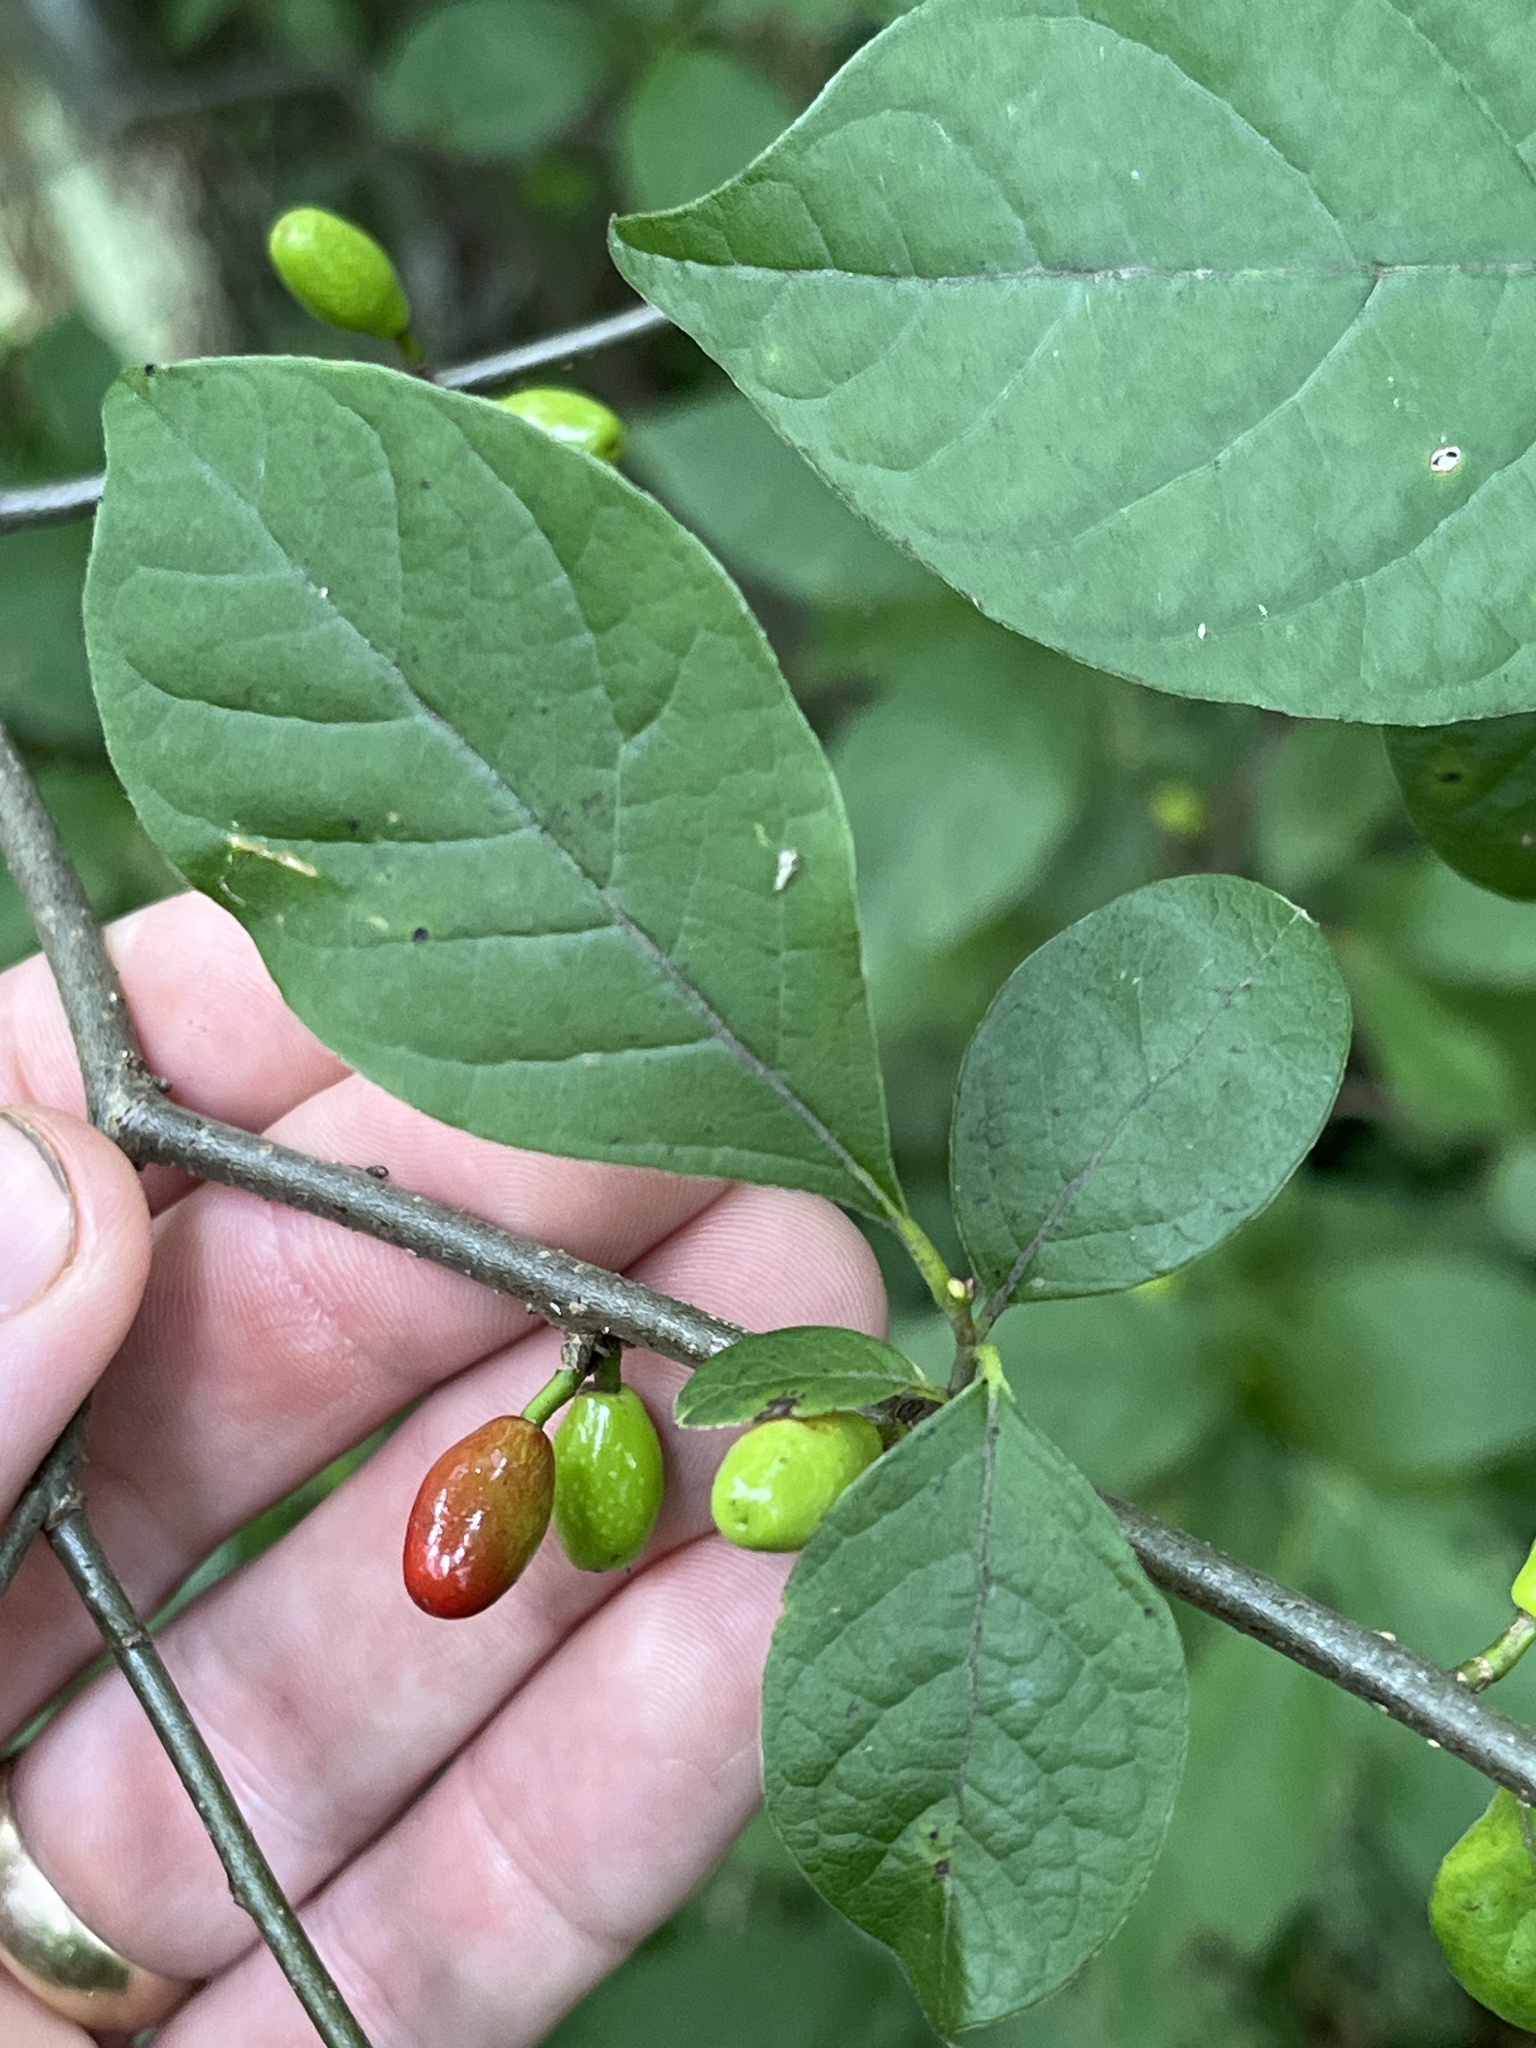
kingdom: Plantae
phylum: Tracheophyta
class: Magnoliopsida
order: Laurales
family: Lauraceae
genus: Lindera
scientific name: Lindera benzoin
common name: Spicebush
